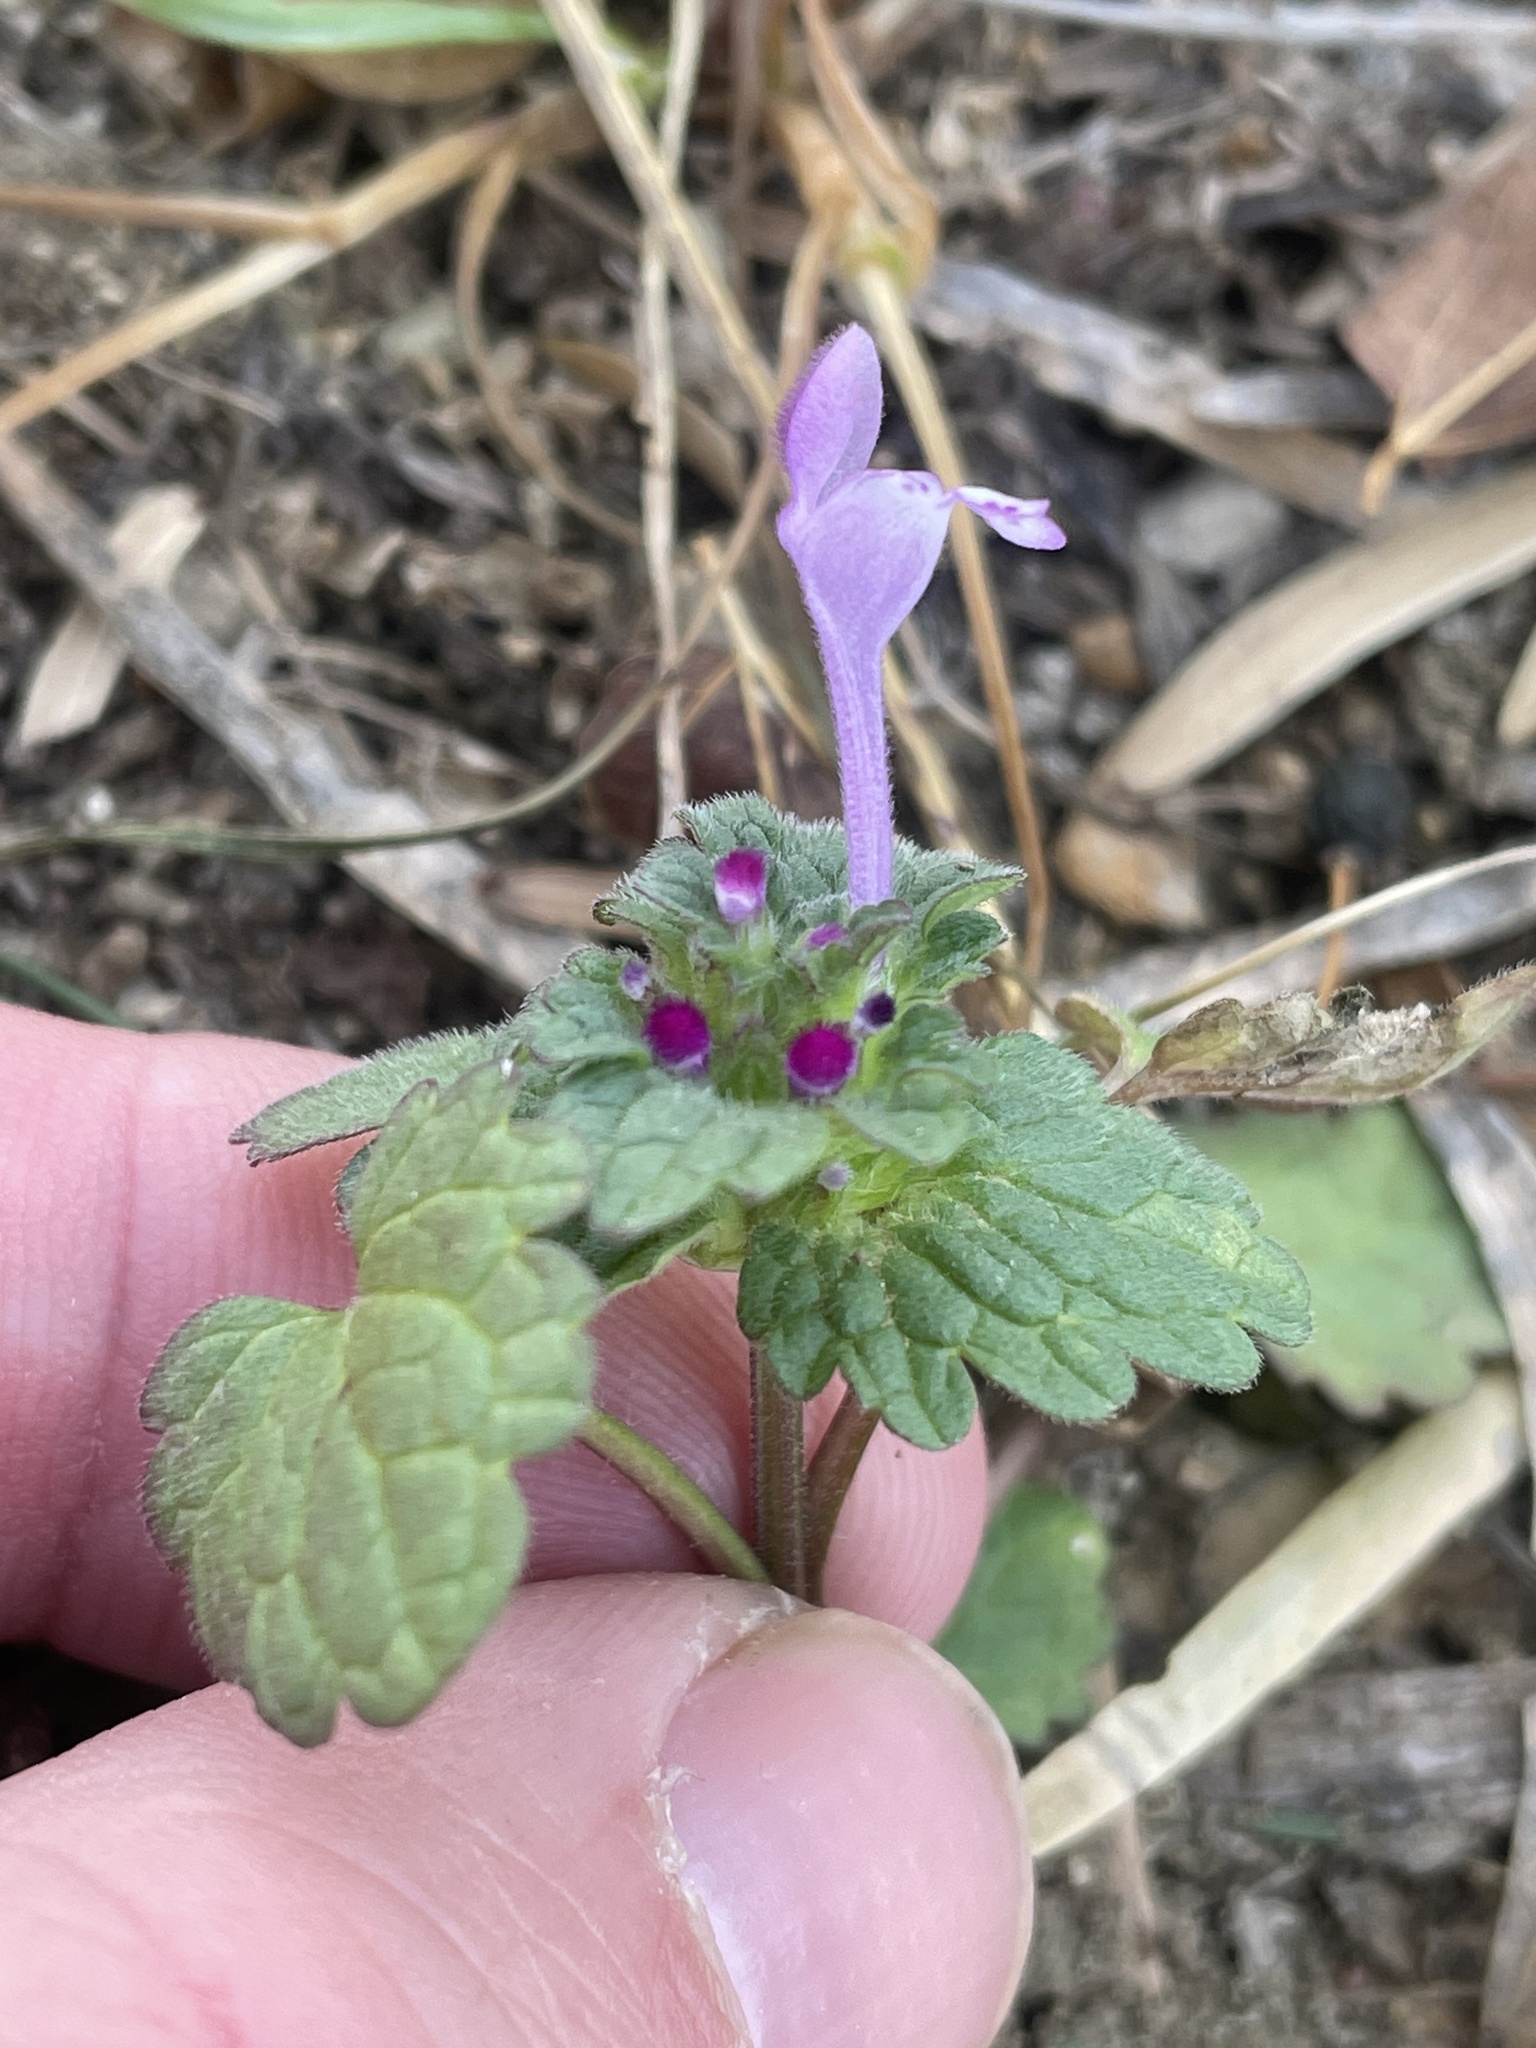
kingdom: Plantae
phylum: Tracheophyta
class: Magnoliopsida
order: Lamiales
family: Lamiaceae
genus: Lamium
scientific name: Lamium amplexicaule
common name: Henbit dead-nettle
